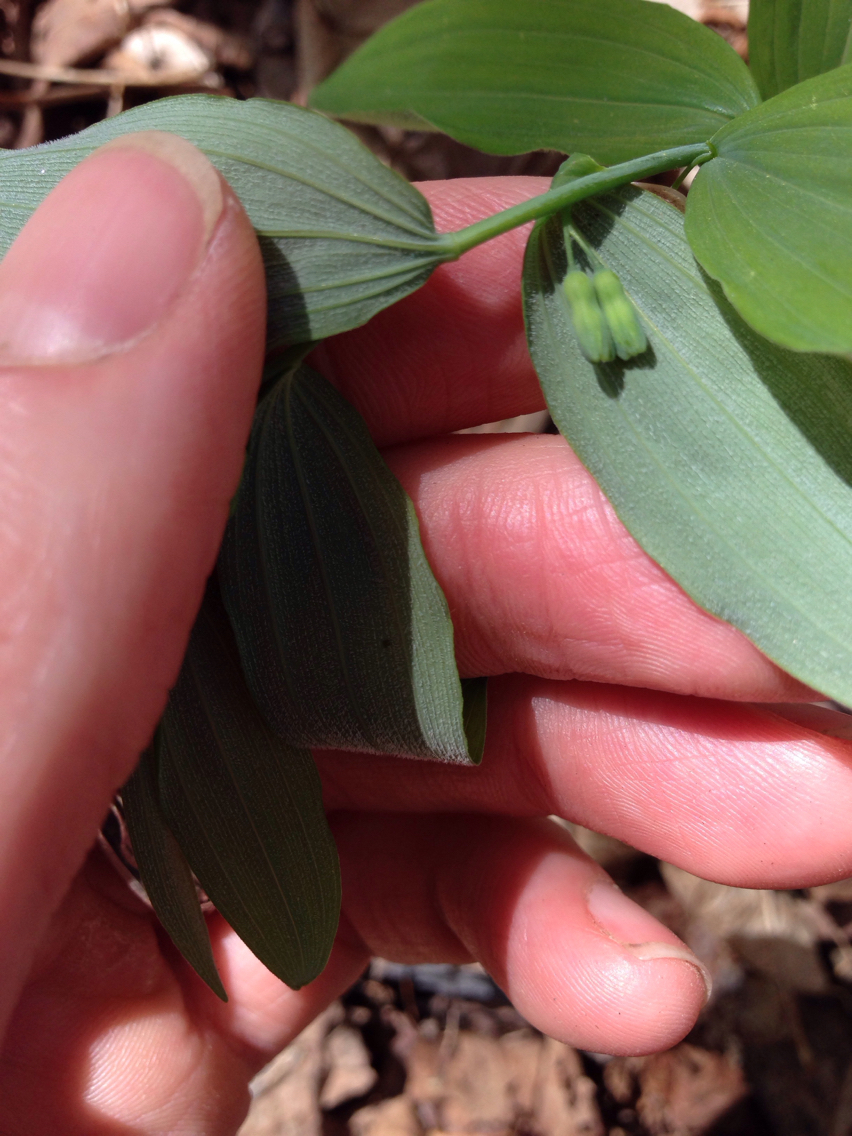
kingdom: Plantae
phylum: Tracheophyta
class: Liliopsida
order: Asparagales
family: Asparagaceae
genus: Polygonatum
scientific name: Polygonatum pubescens
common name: Downy solomon's seal
